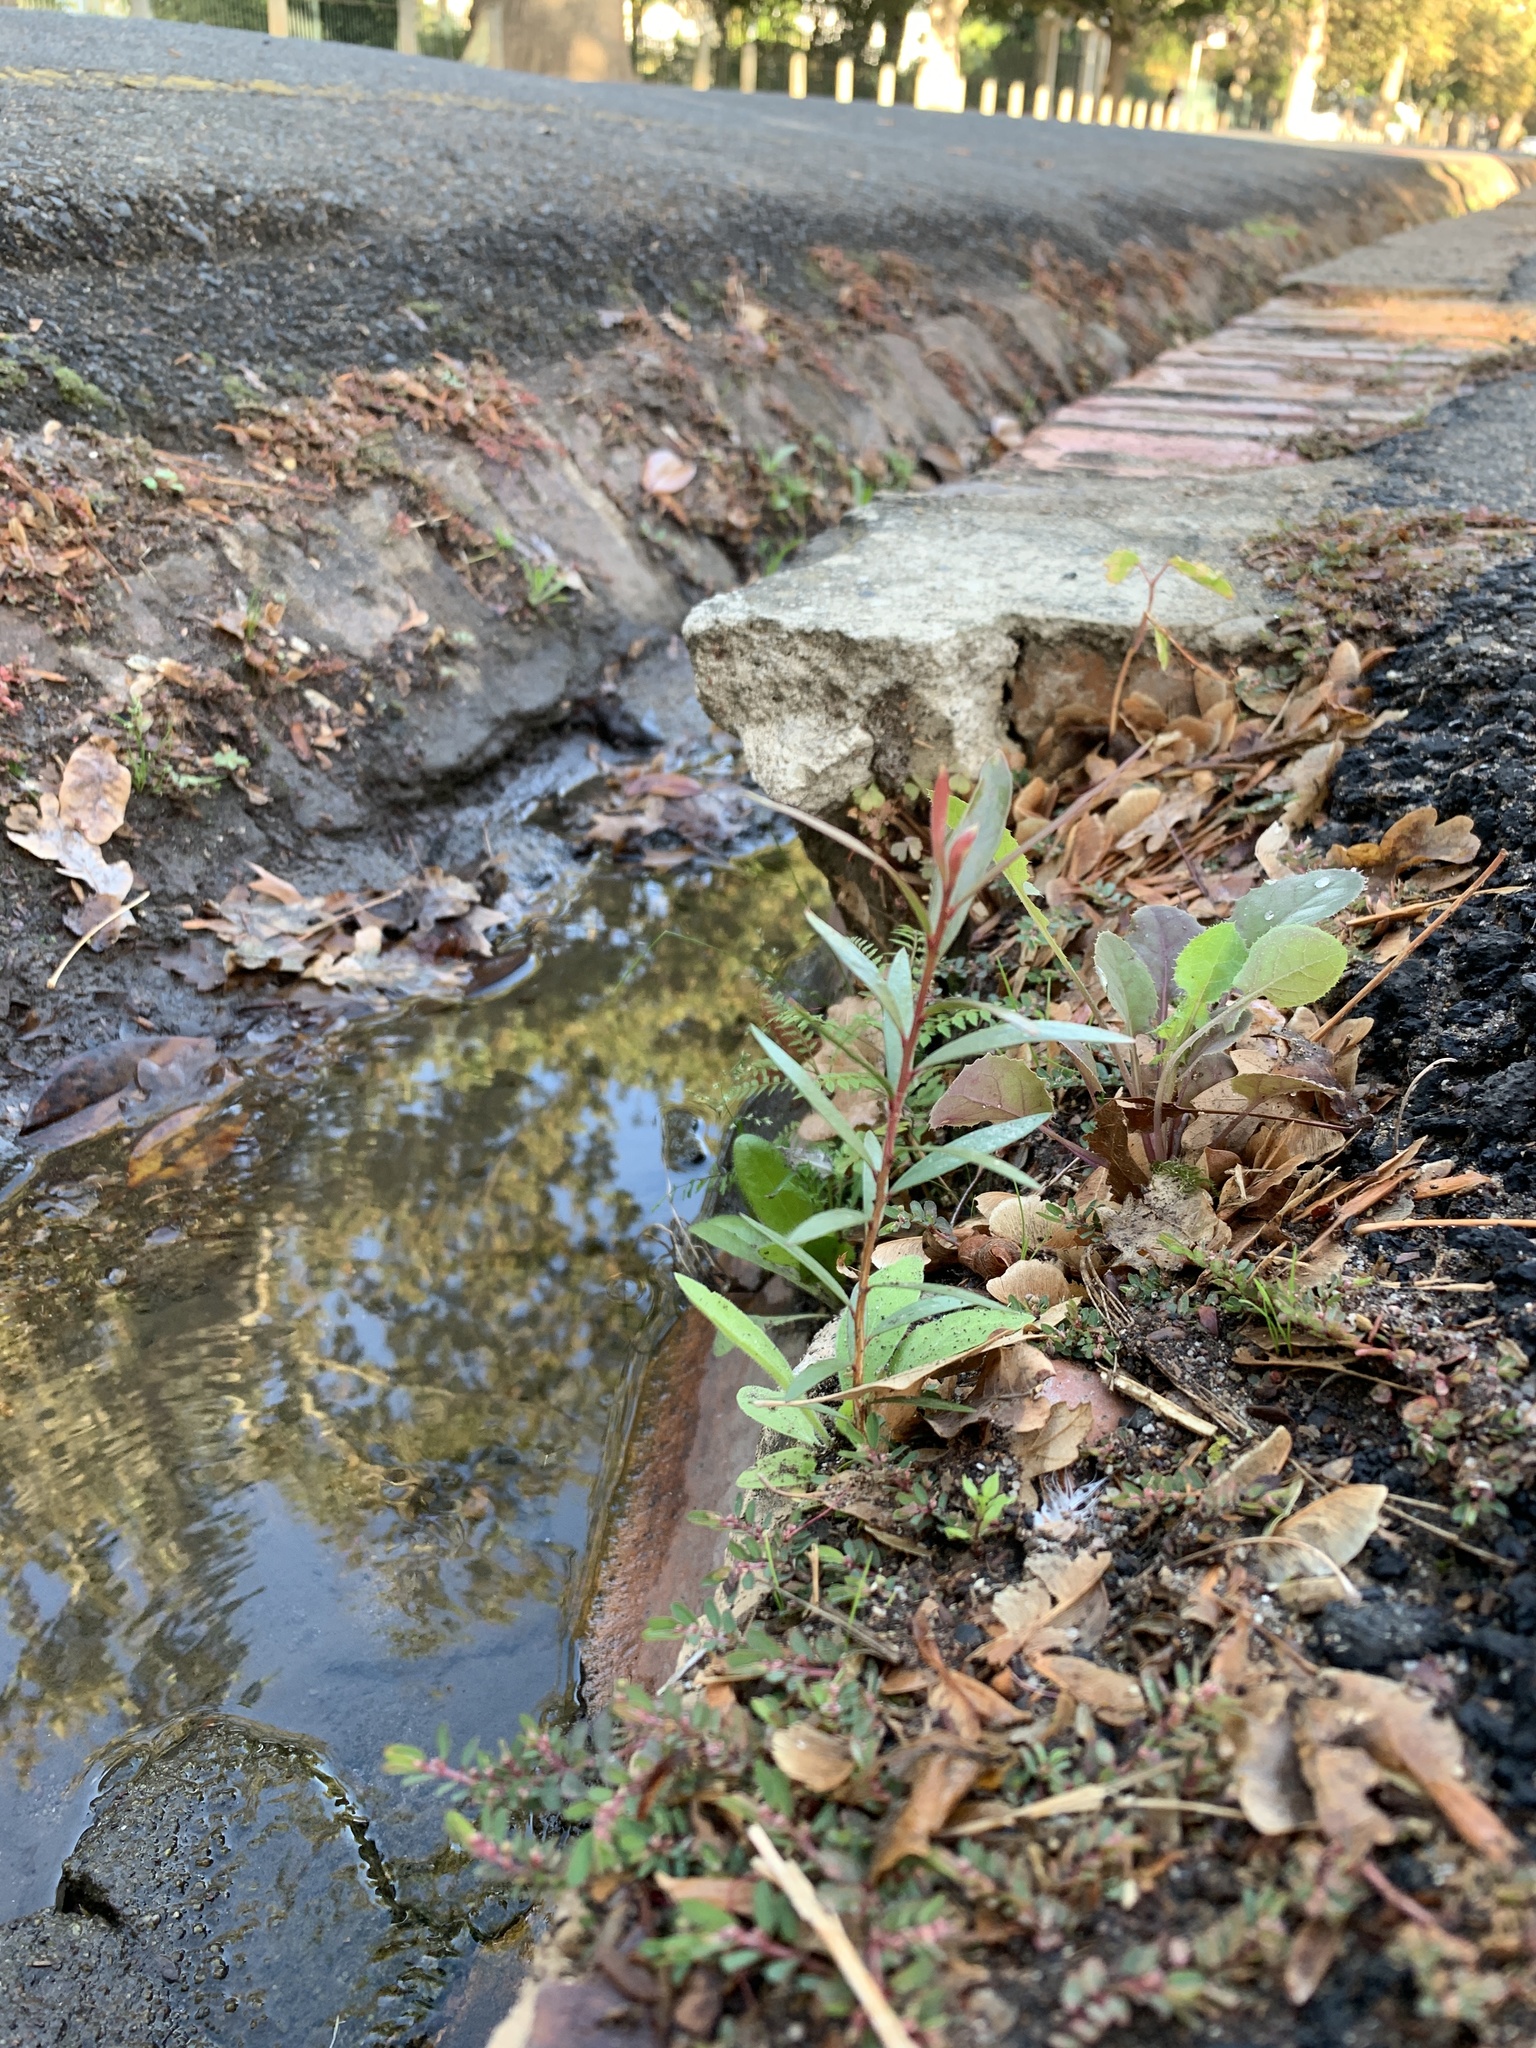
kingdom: Plantae
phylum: Tracheophyta
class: Magnoliopsida
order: Myrtales
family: Myrtaceae
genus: Callistemon
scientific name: Callistemon viminalis
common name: Drooping bottlebrush
